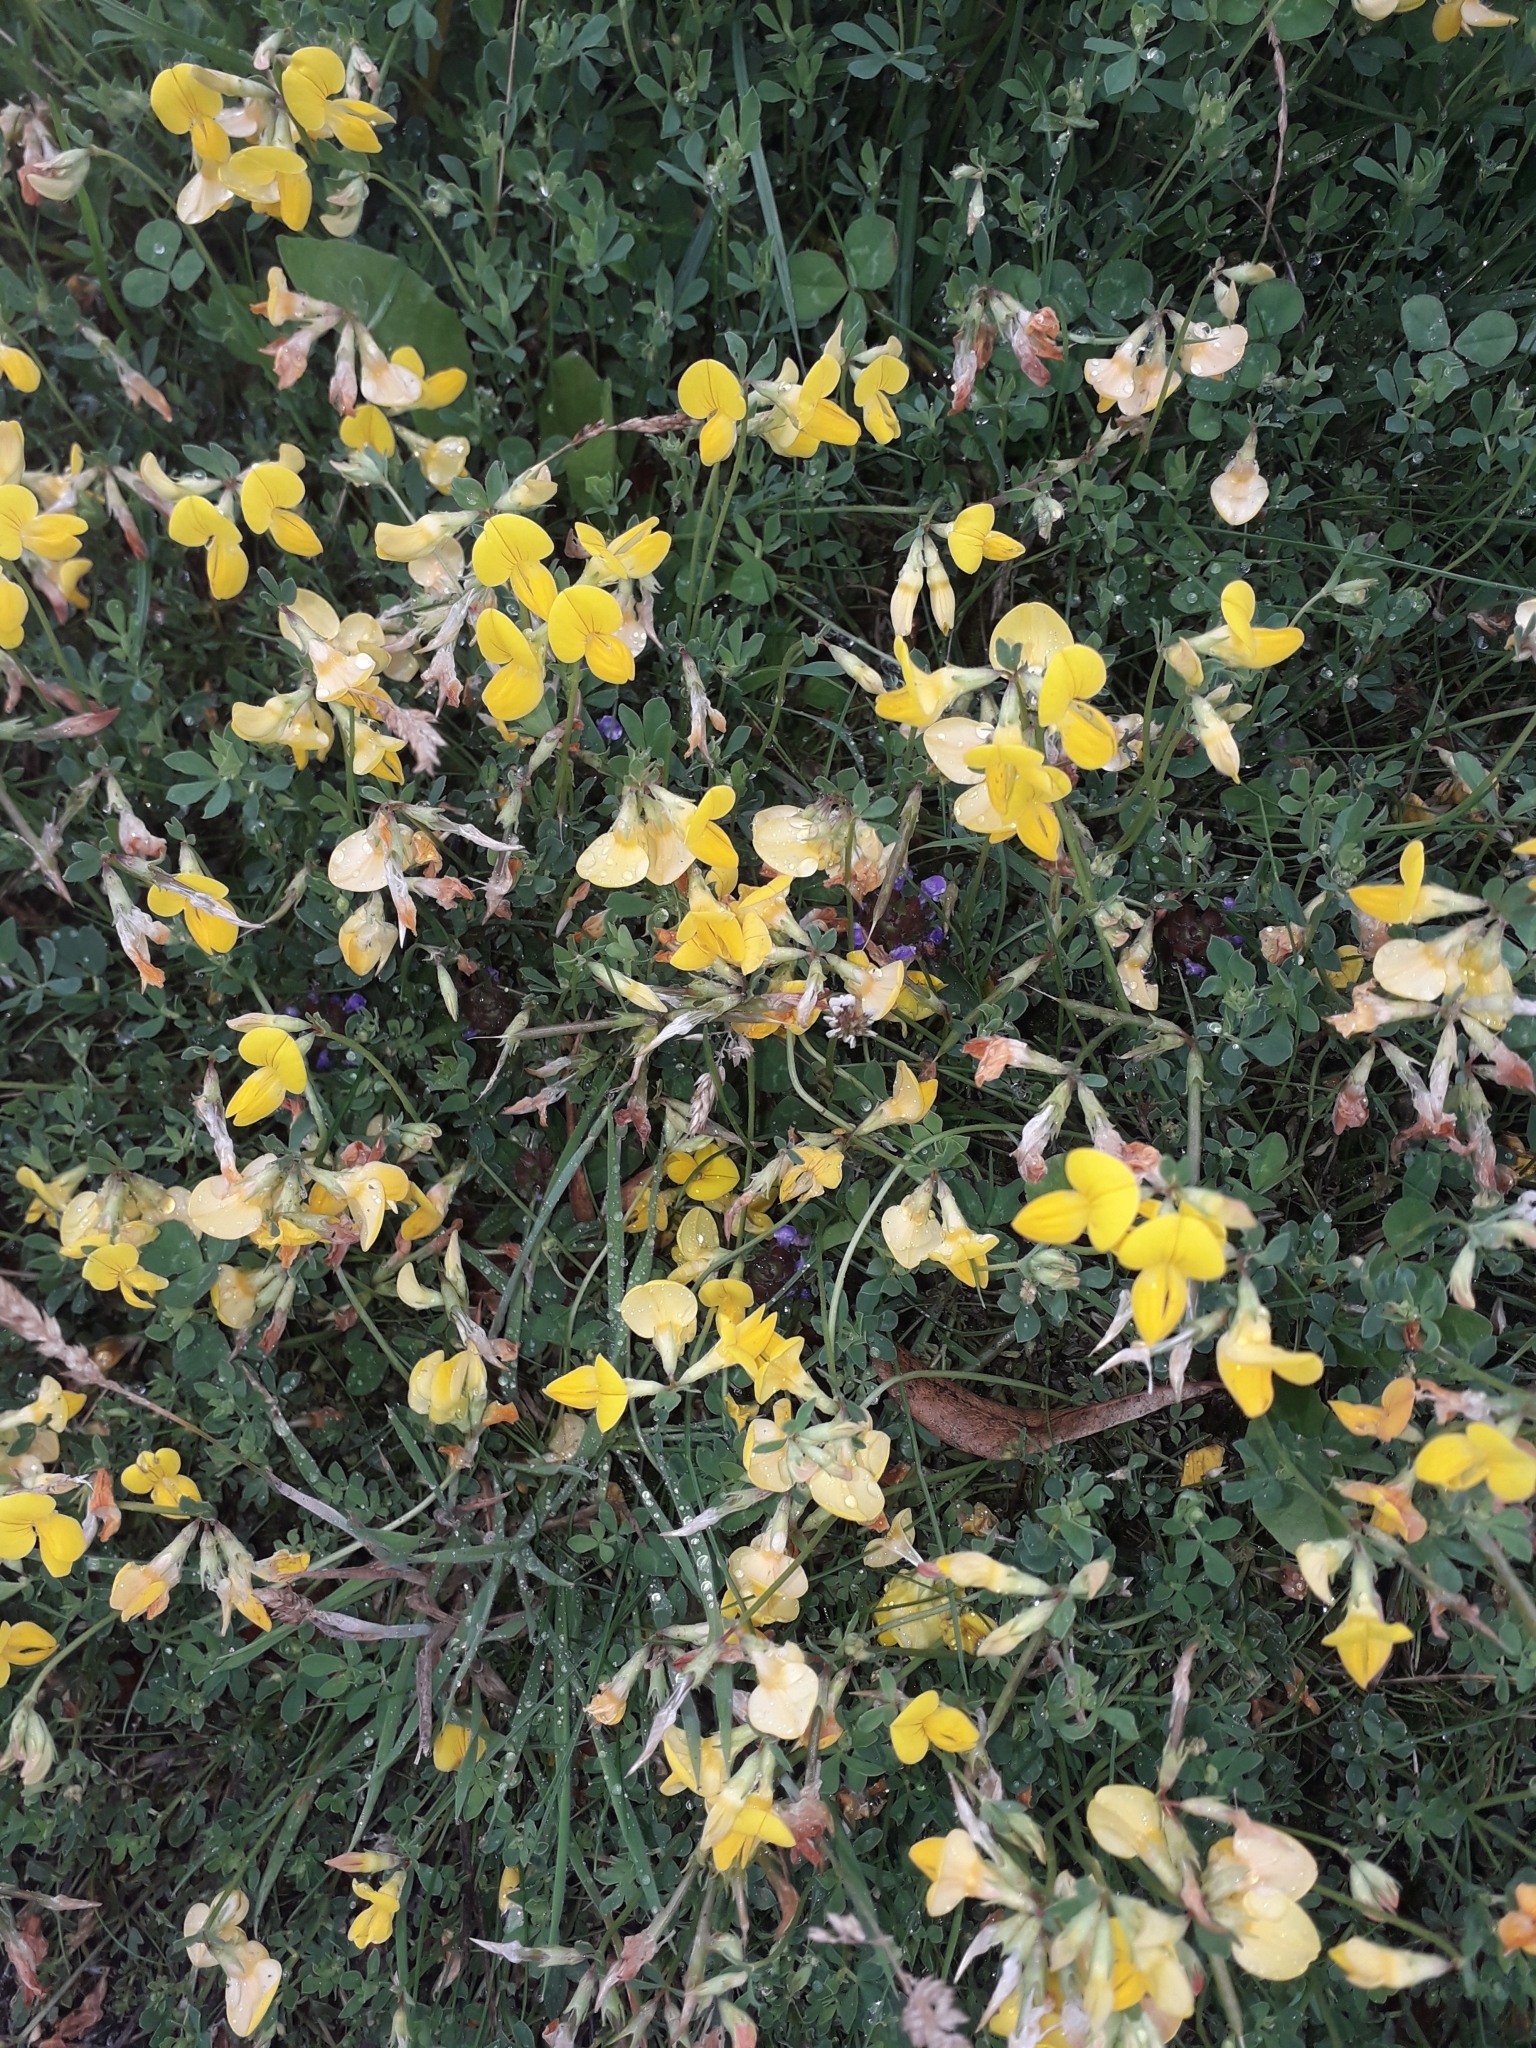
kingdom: Plantae
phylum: Tracheophyta
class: Magnoliopsida
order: Fabales
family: Fabaceae
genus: Lotus
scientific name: Lotus corniculatus
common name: Common bird's-foot-trefoil
